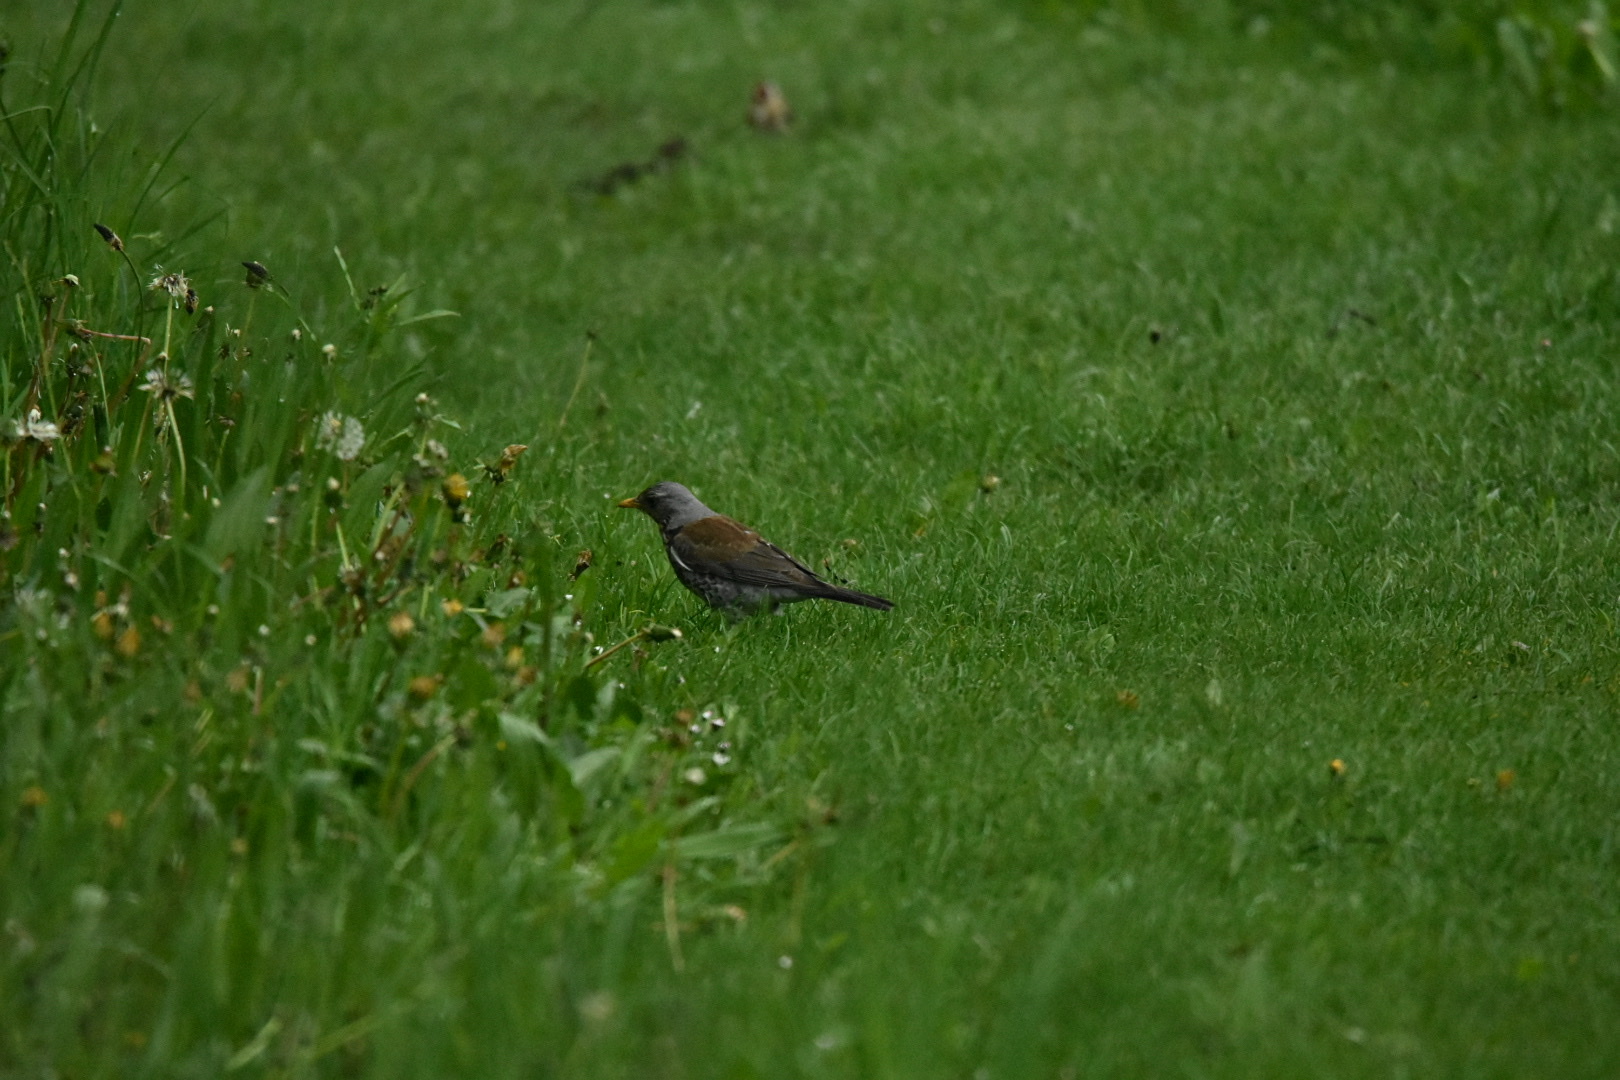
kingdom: Animalia
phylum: Chordata
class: Aves
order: Passeriformes
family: Turdidae
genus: Turdus
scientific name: Turdus pilaris
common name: Fieldfare
